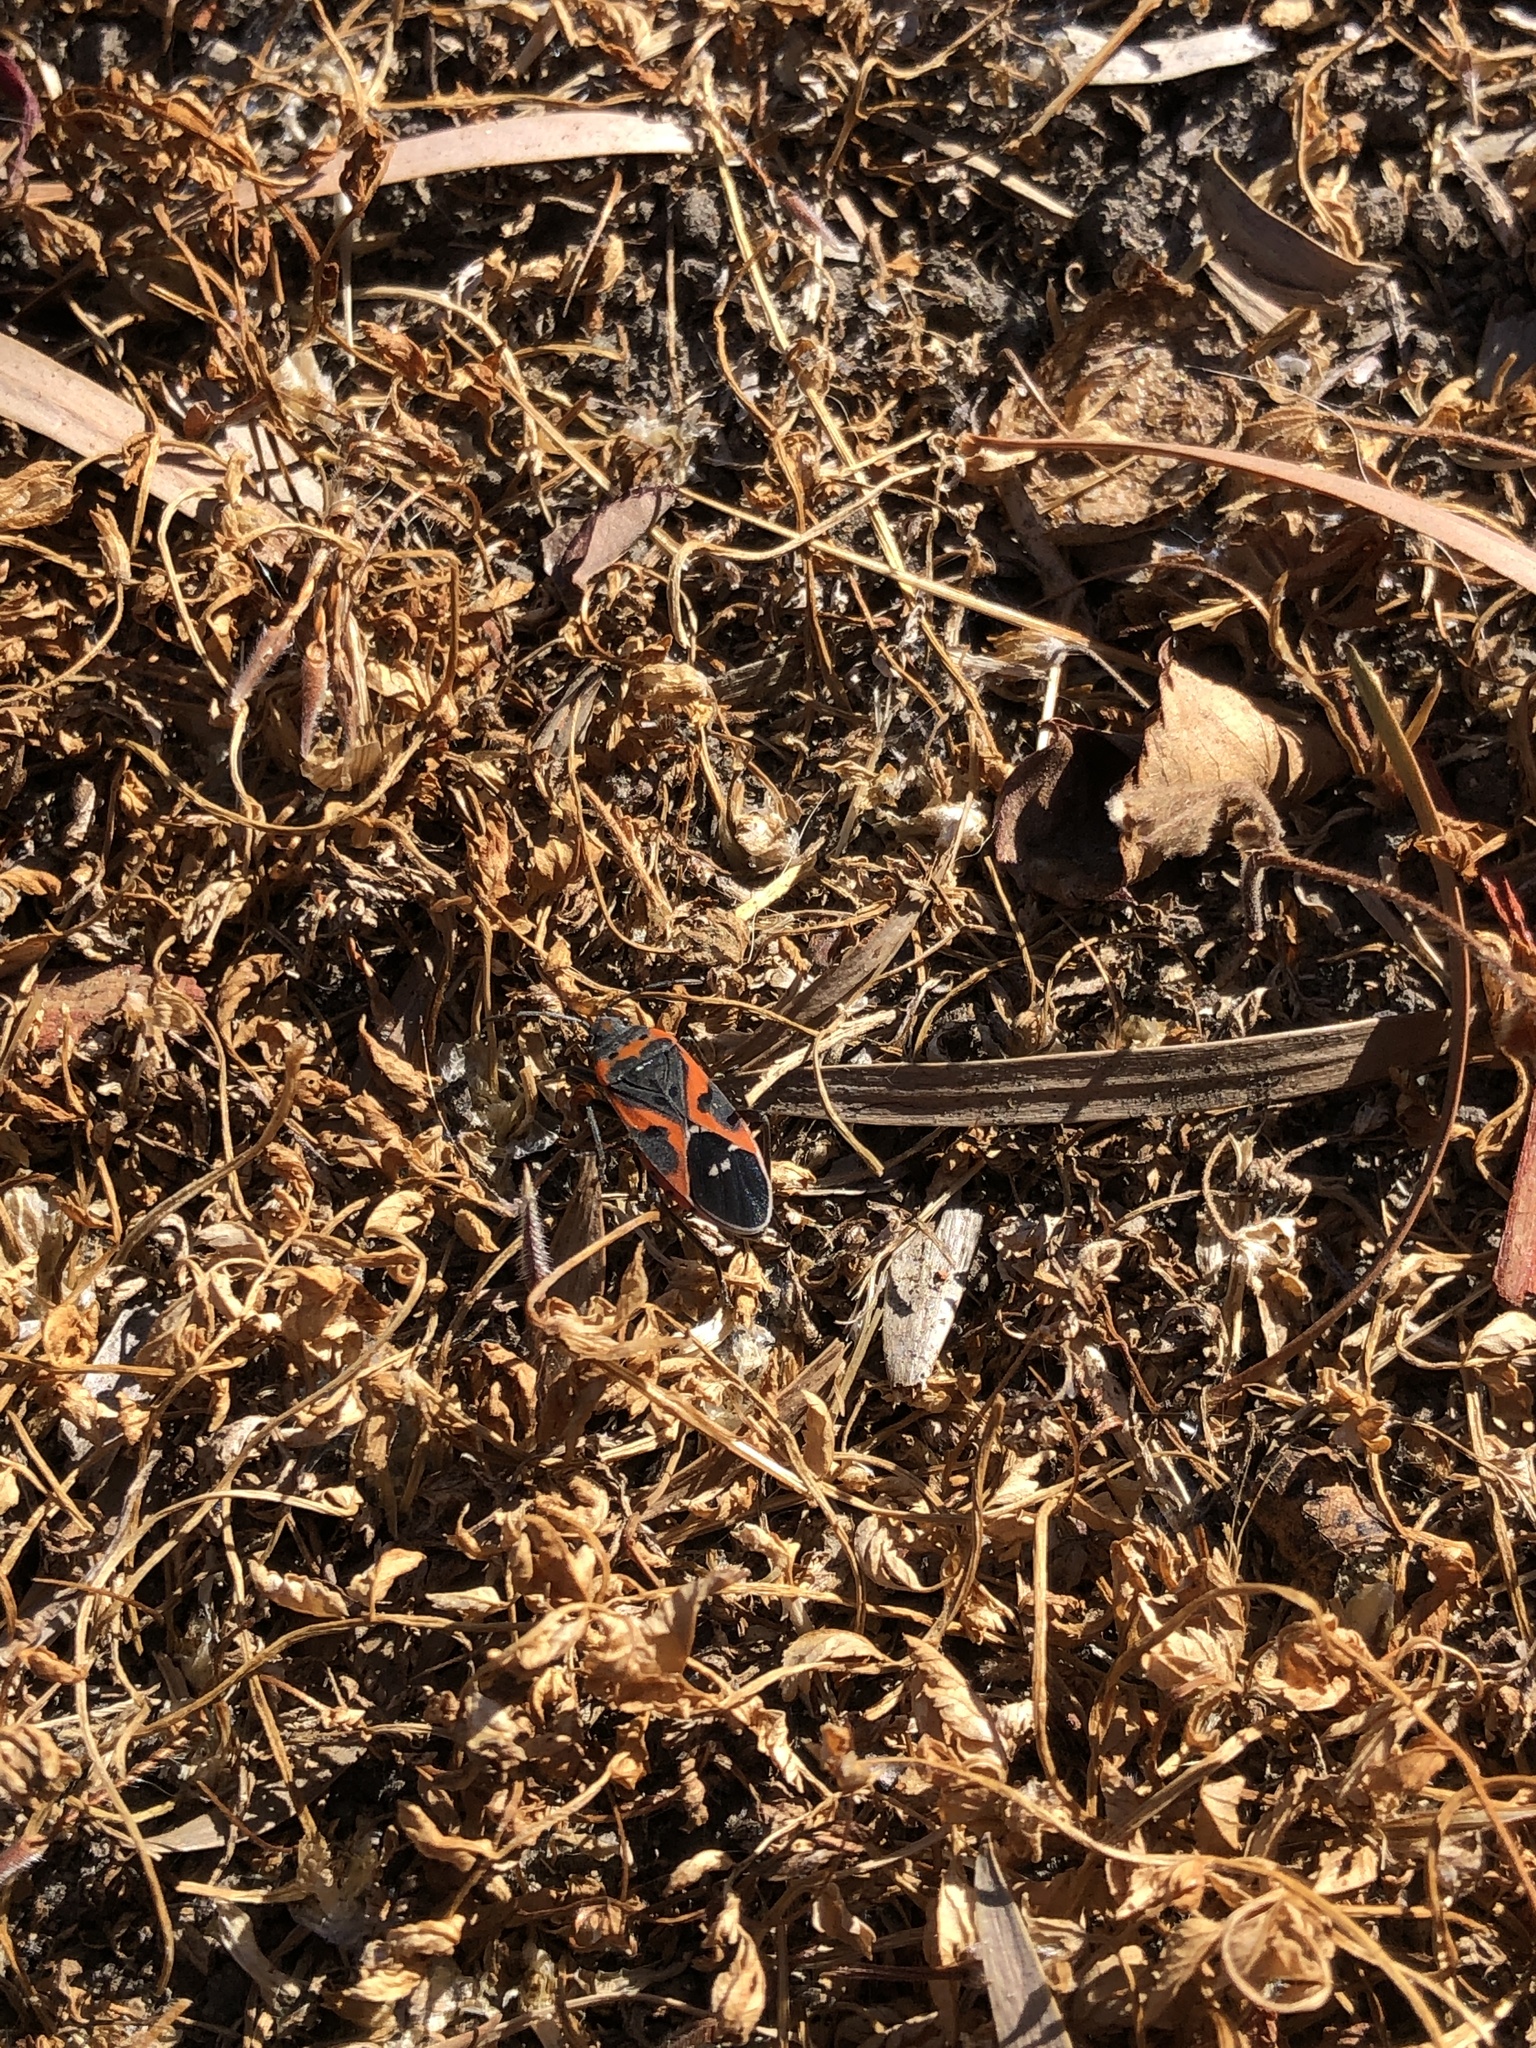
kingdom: Animalia
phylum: Arthropoda
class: Insecta
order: Hemiptera
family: Lygaeidae
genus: Lygaeus
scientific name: Lygaeus kalmii
